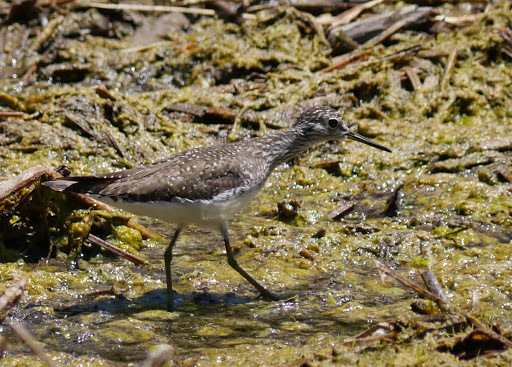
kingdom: Animalia
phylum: Chordata
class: Aves
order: Charadriiformes
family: Scolopacidae
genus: Tringa
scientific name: Tringa solitaria
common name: Solitary sandpiper
